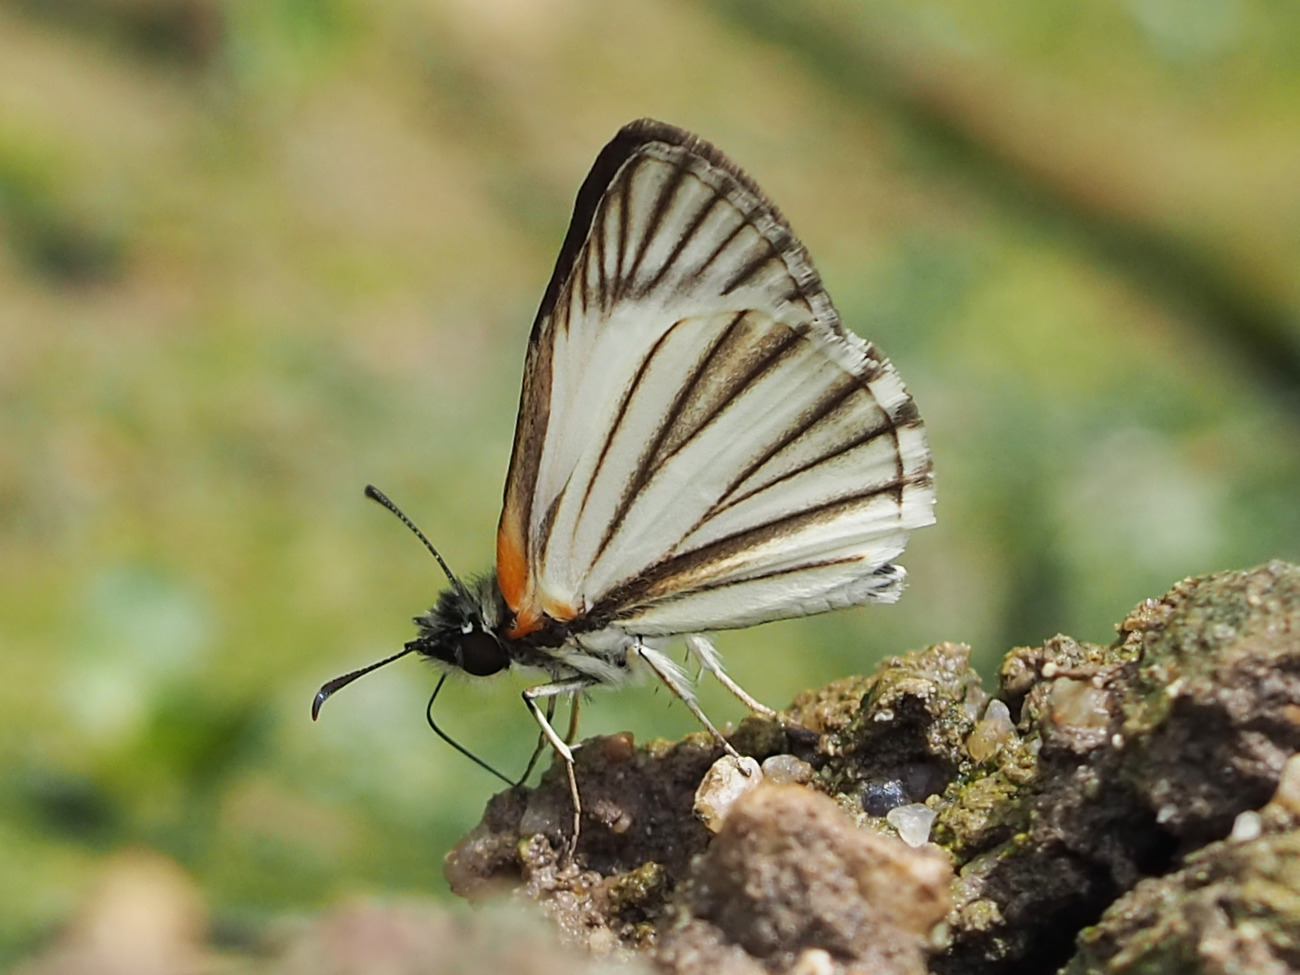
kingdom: Animalia
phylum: Arthropoda
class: Insecta
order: Lepidoptera
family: Hesperiidae
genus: Heliopetes
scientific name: Heliopetes arsalte
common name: Veined white-skipper
